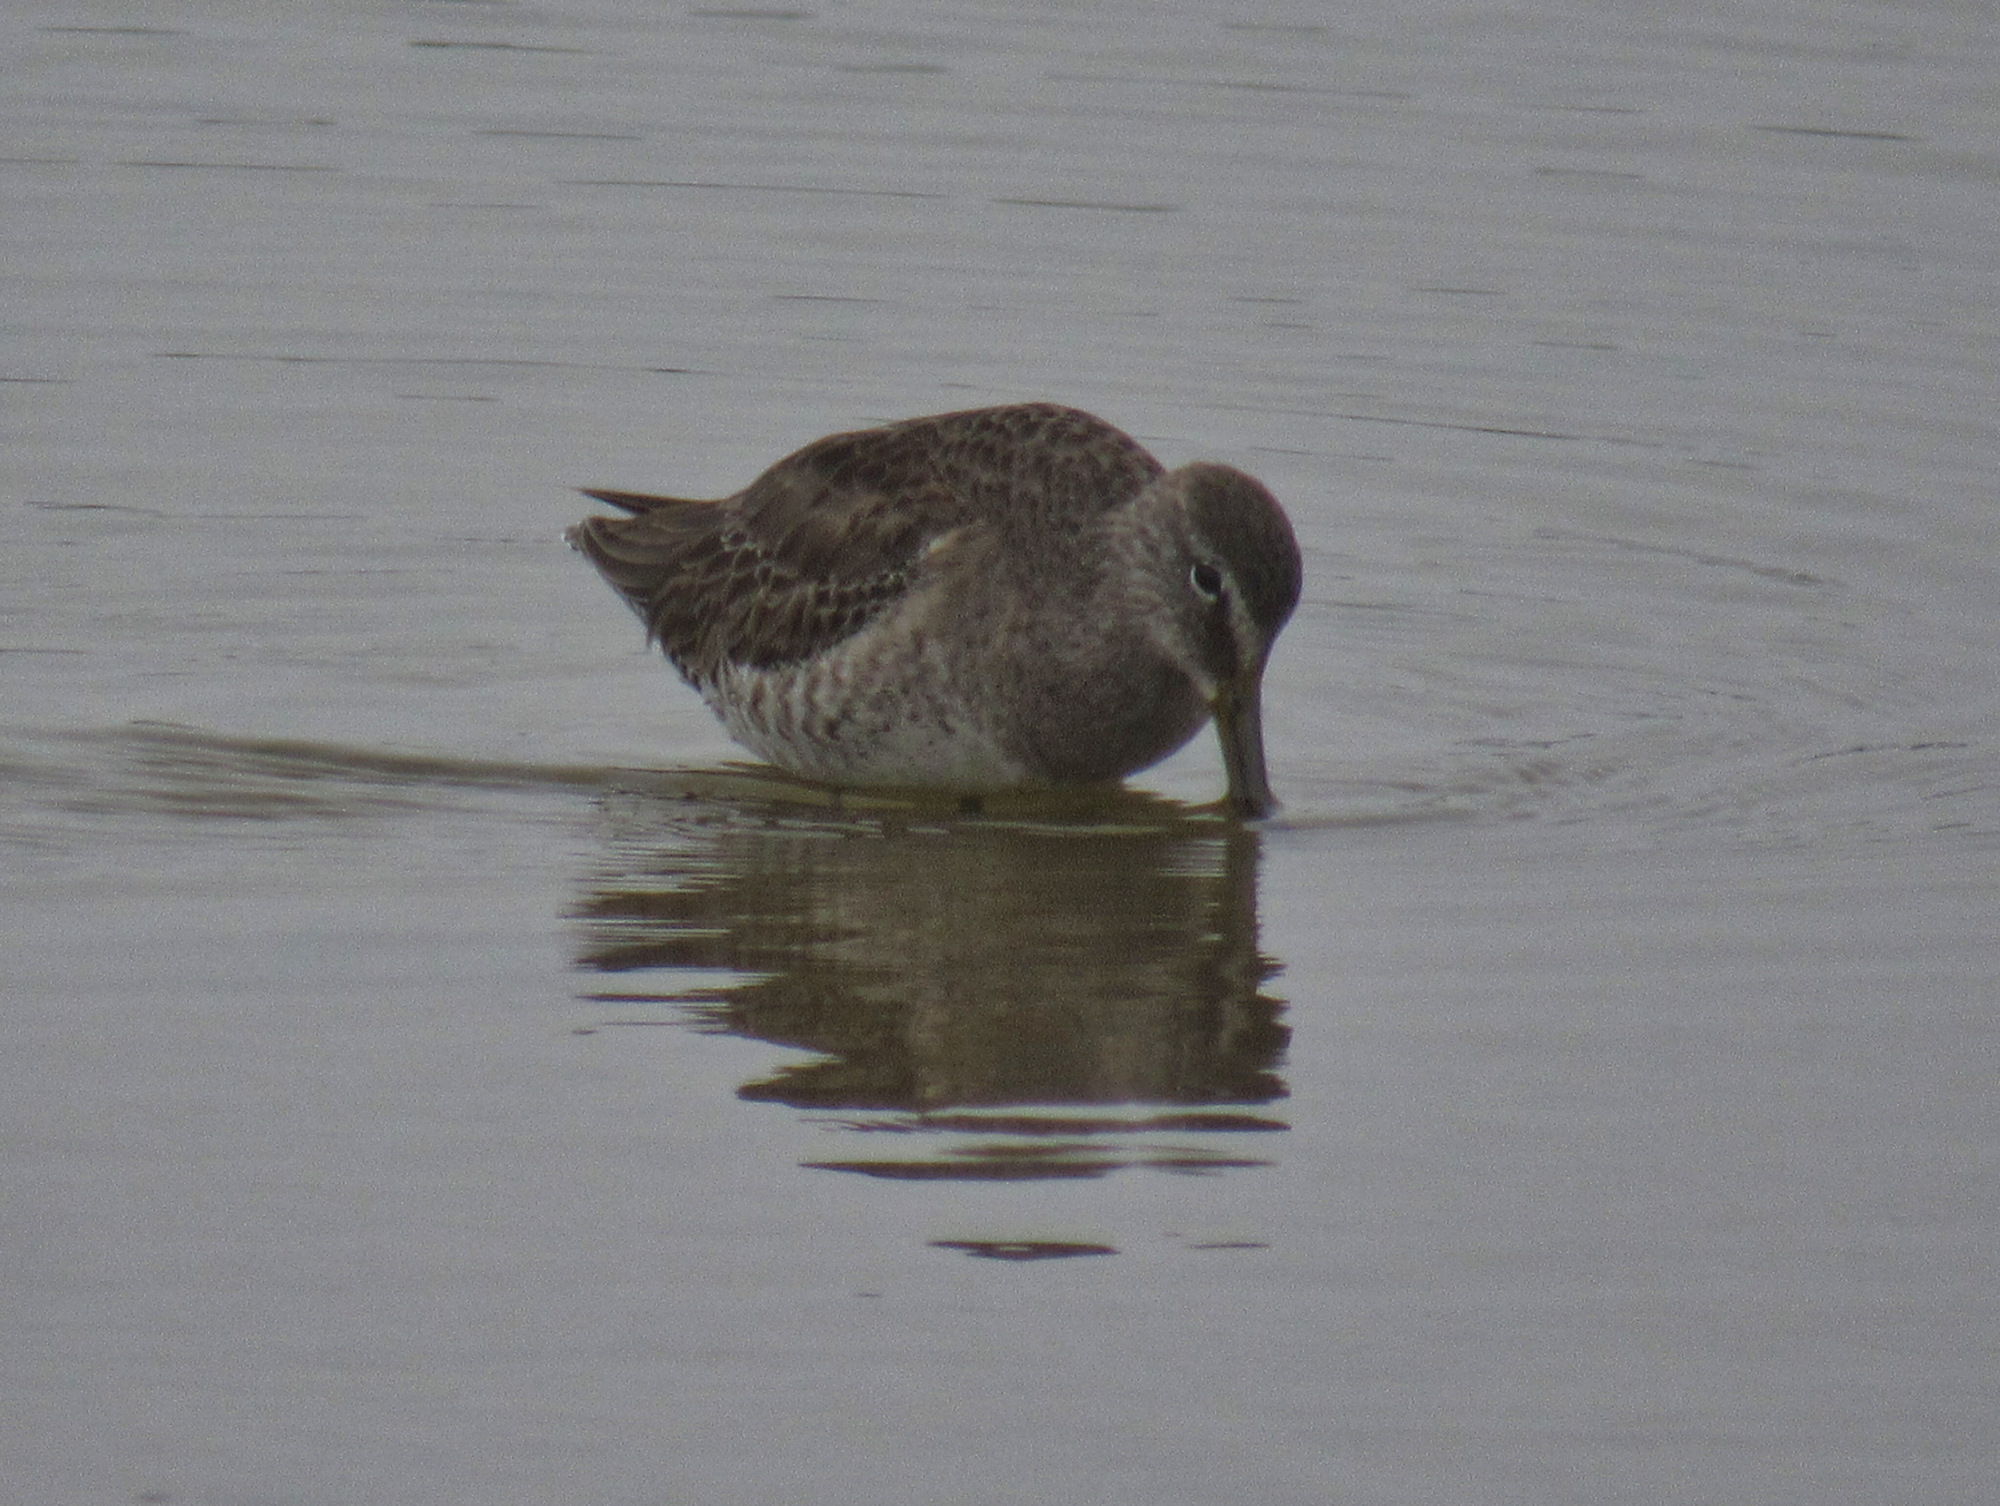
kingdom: Animalia
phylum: Chordata
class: Aves
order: Charadriiformes
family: Scolopacidae
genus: Limnodromus
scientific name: Limnodromus scolopaceus
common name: Long-billed dowitcher
